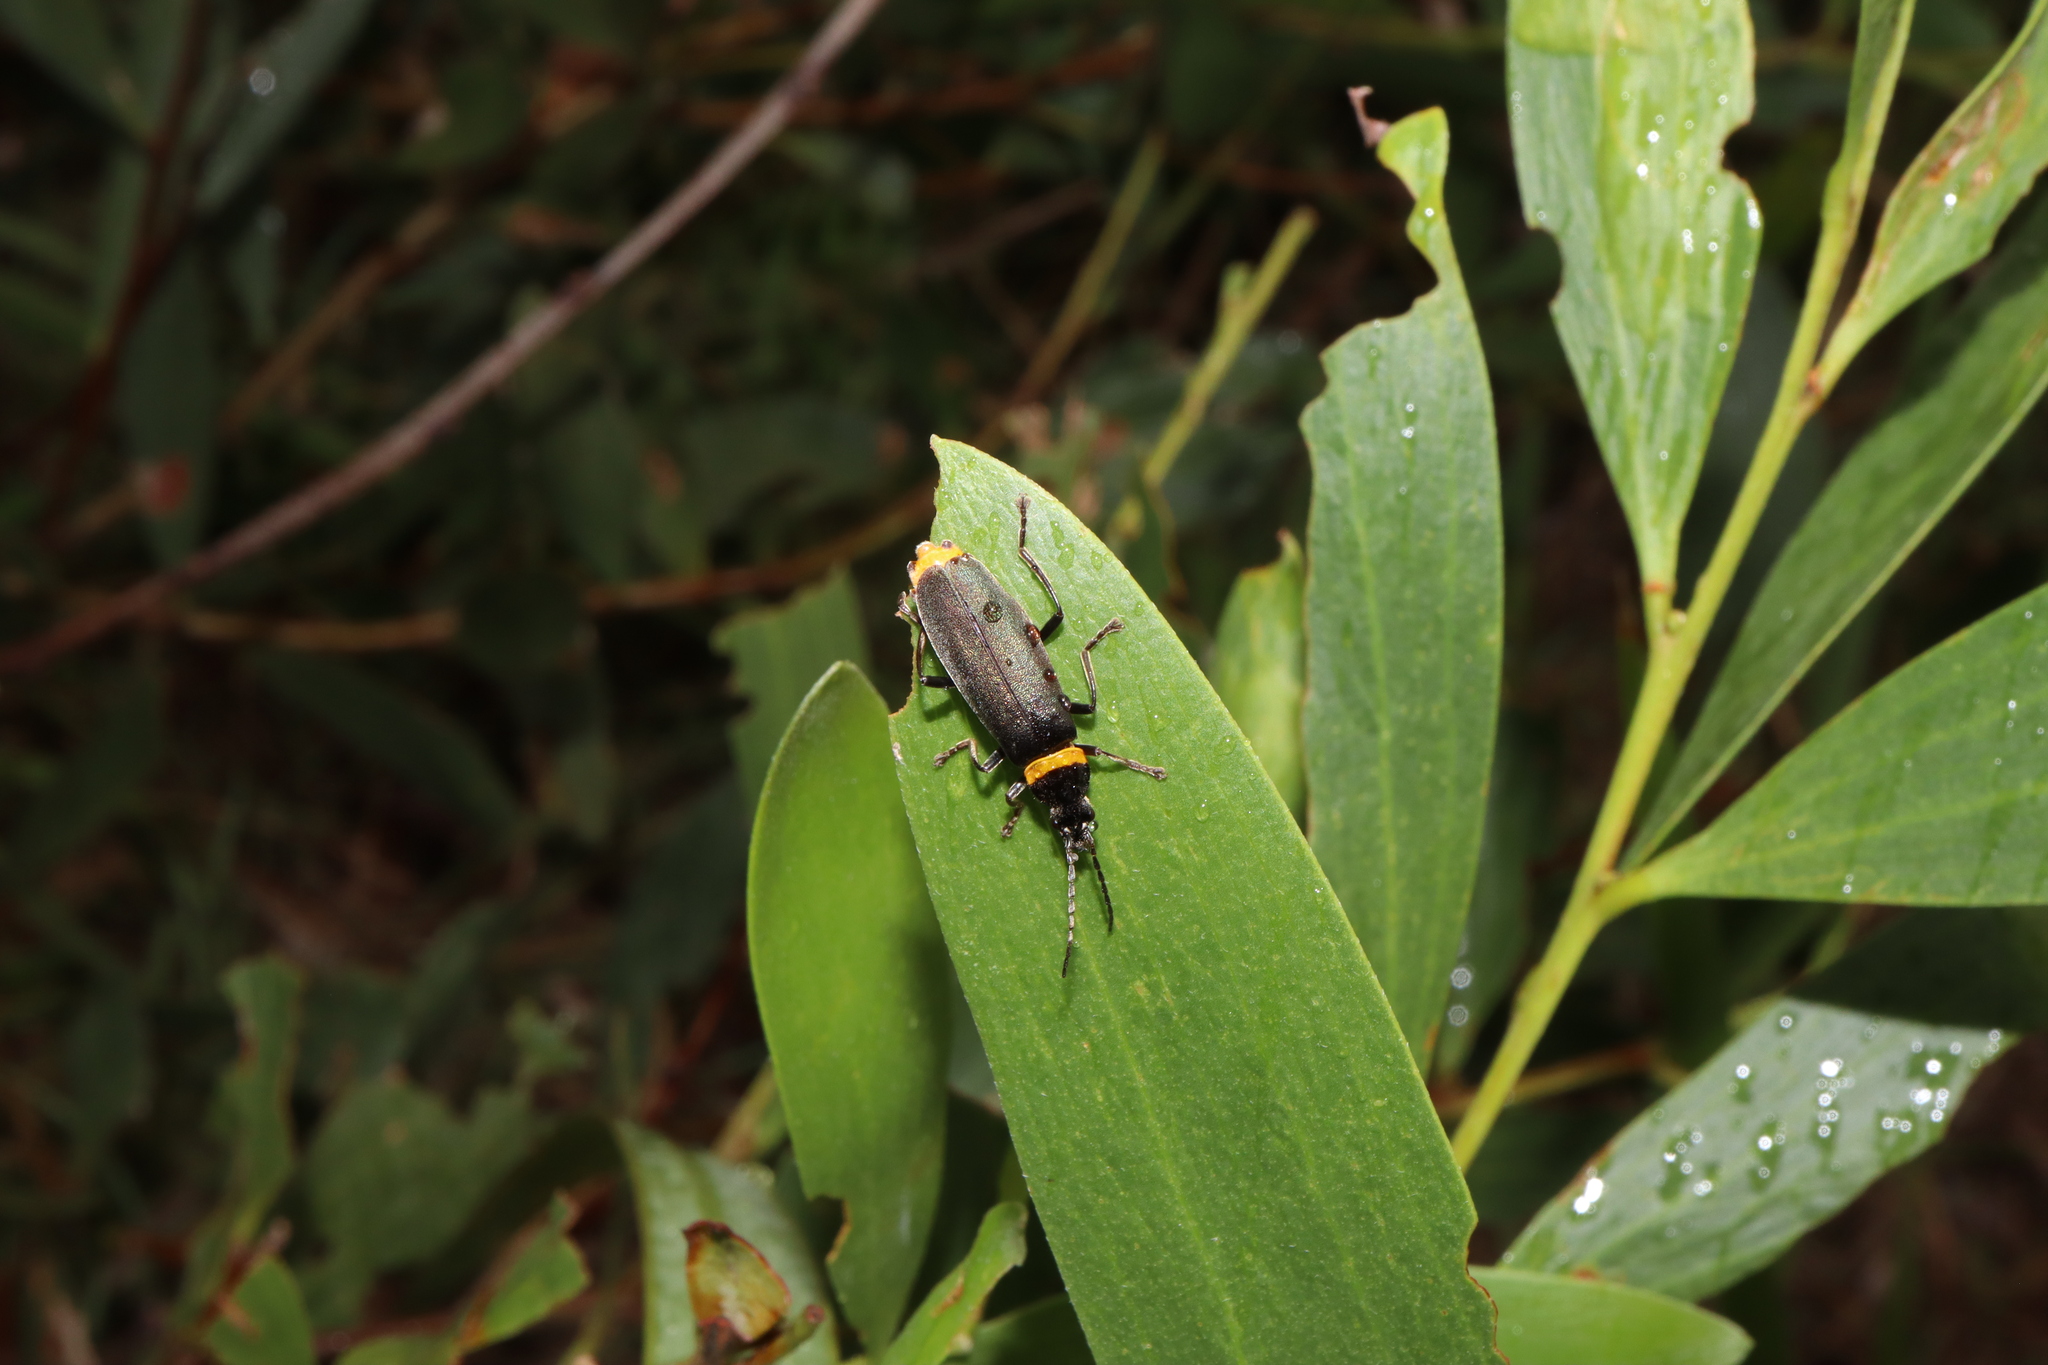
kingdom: Animalia
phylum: Arthropoda
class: Insecta
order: Coleoptera
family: Cantharidae
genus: Chauliognathus
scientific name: Chauliognathus
